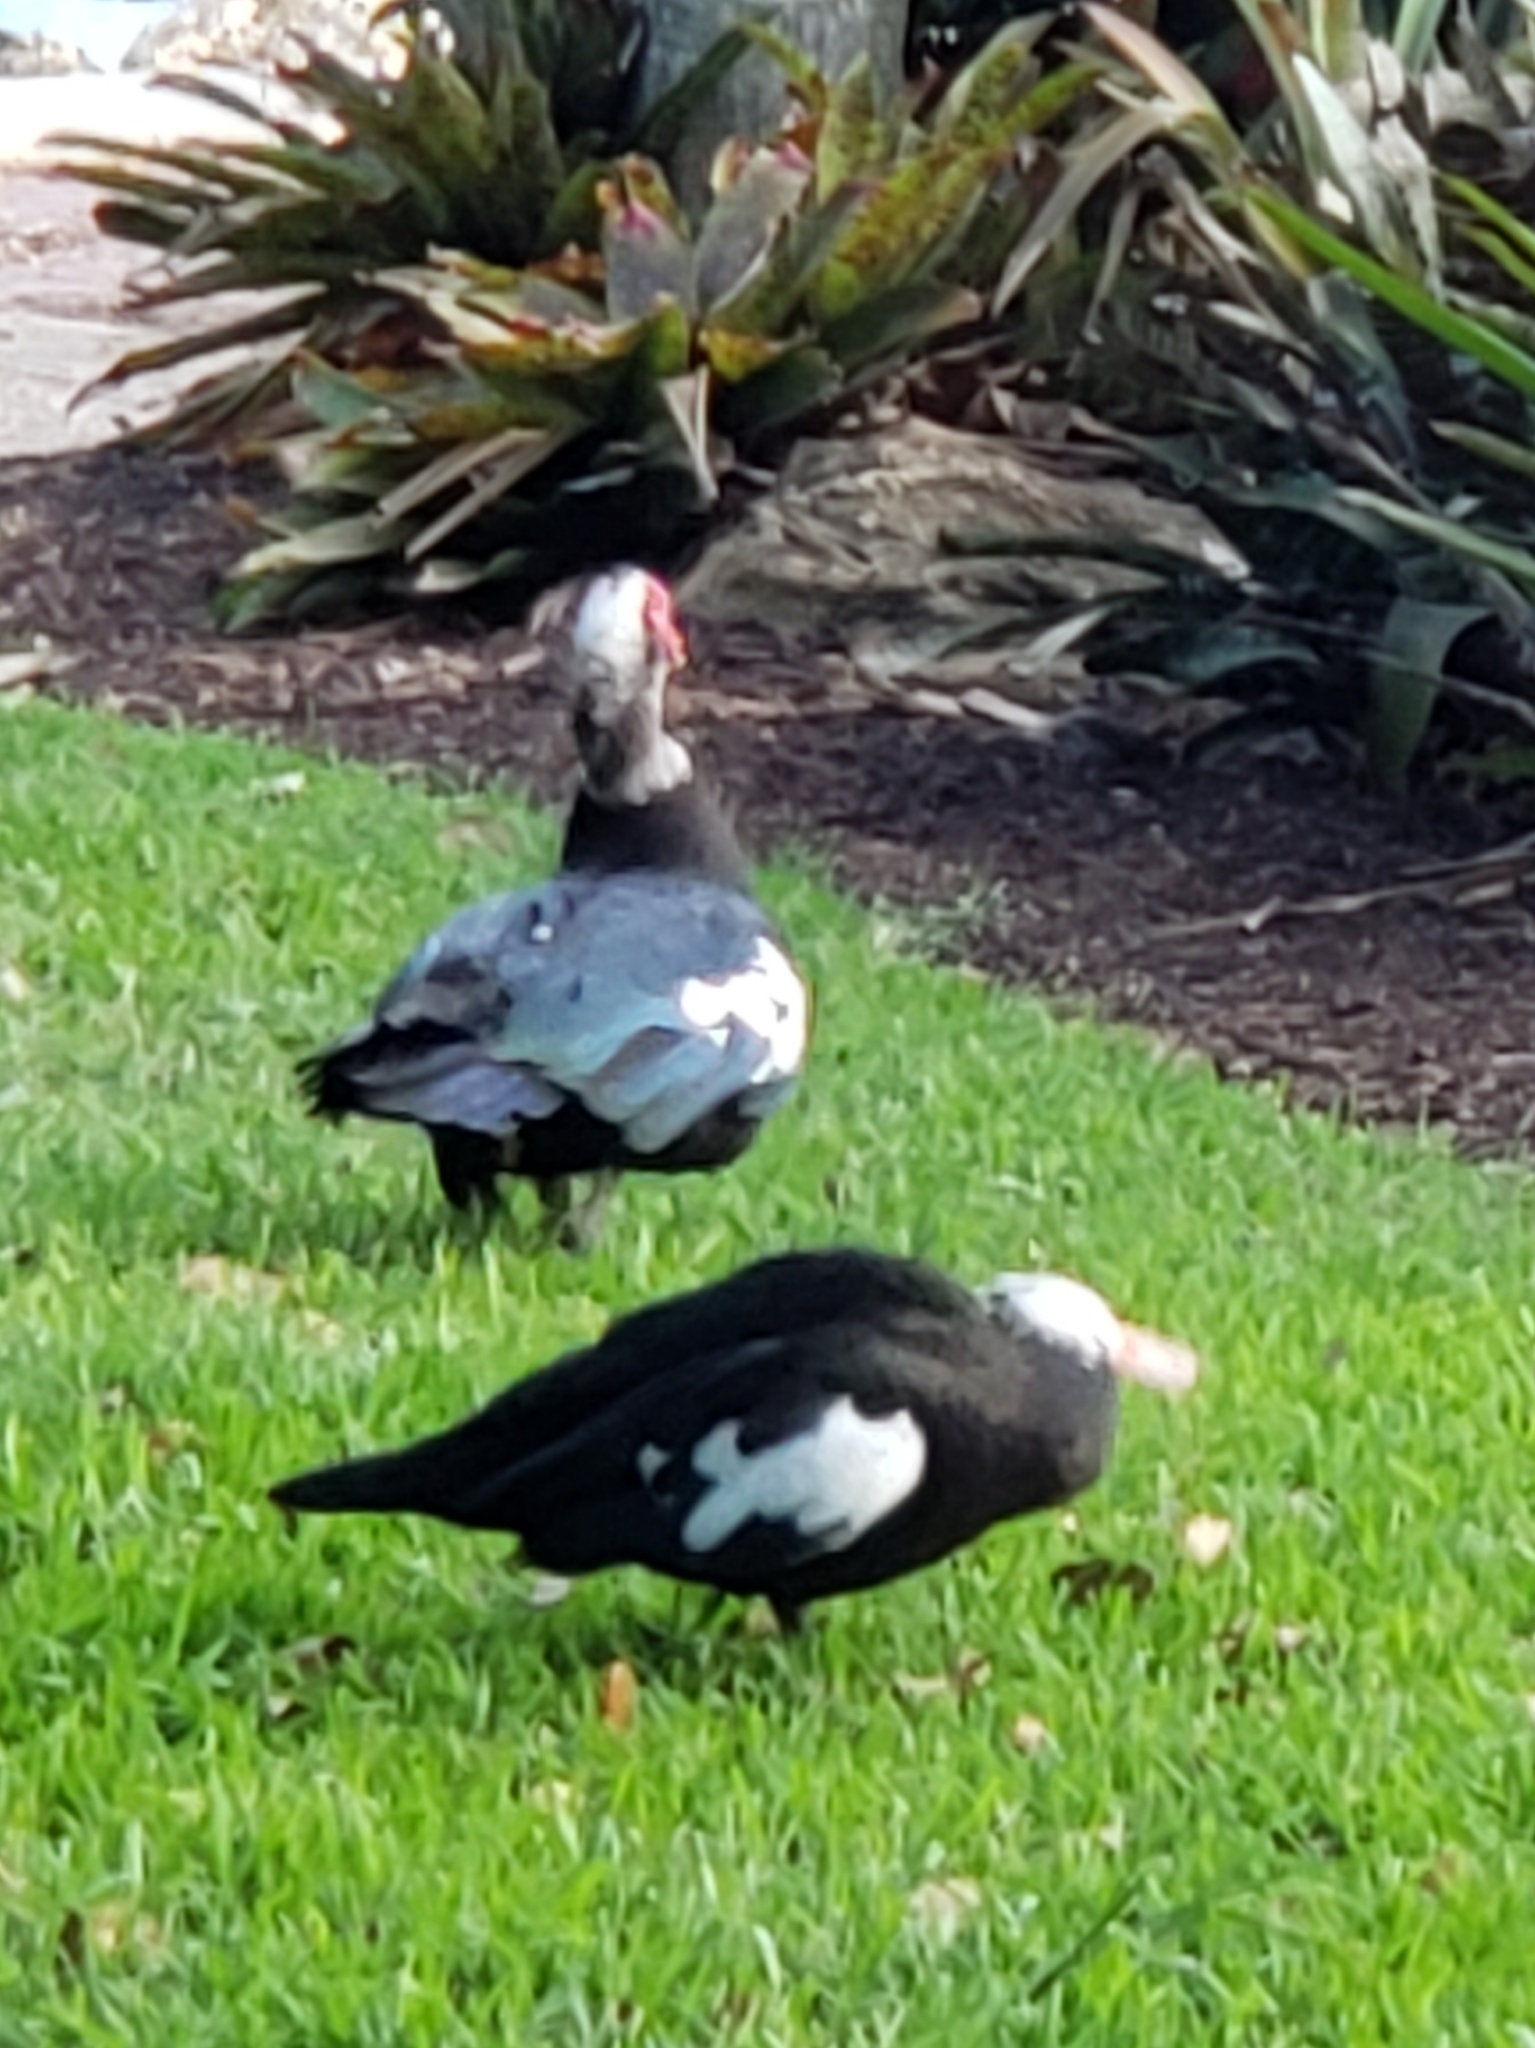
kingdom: Animalia
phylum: Chordata
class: Aves
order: Anseriformes
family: Anatidae
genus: Cairina
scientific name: Cairina moschata
